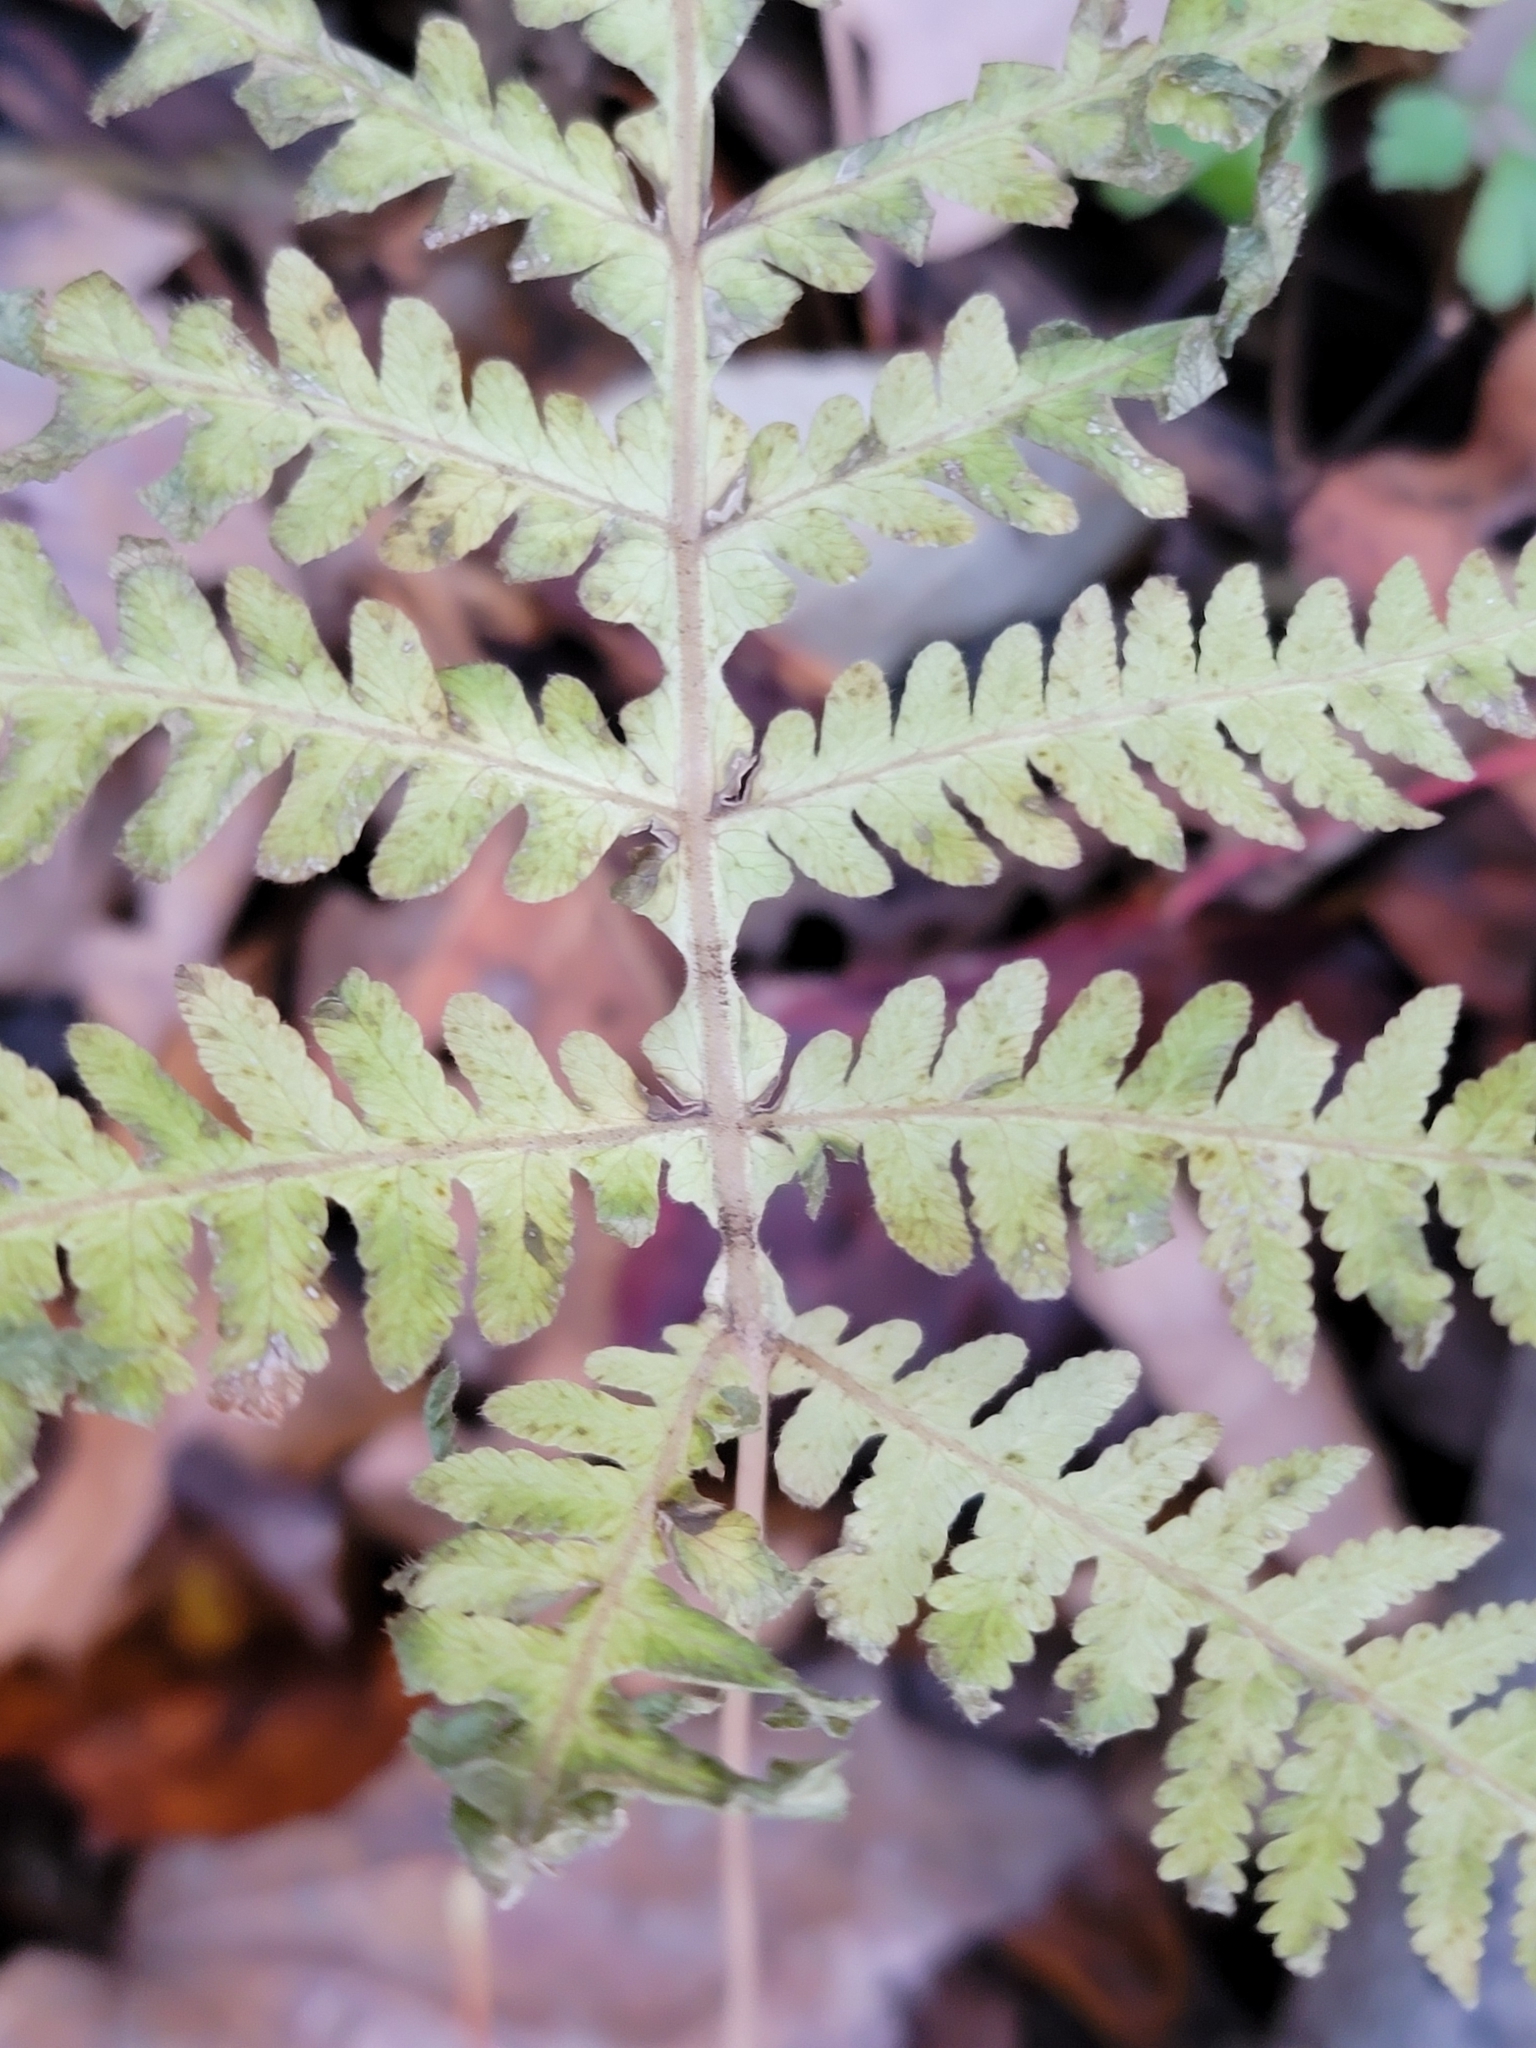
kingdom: Plantae
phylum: Tracheophyta
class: Polypodiopsida
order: Polypodiales
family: Thelypteridaceae
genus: Phegopteris
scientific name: Phegopteris hexagonoptera
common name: Broad beech fern
